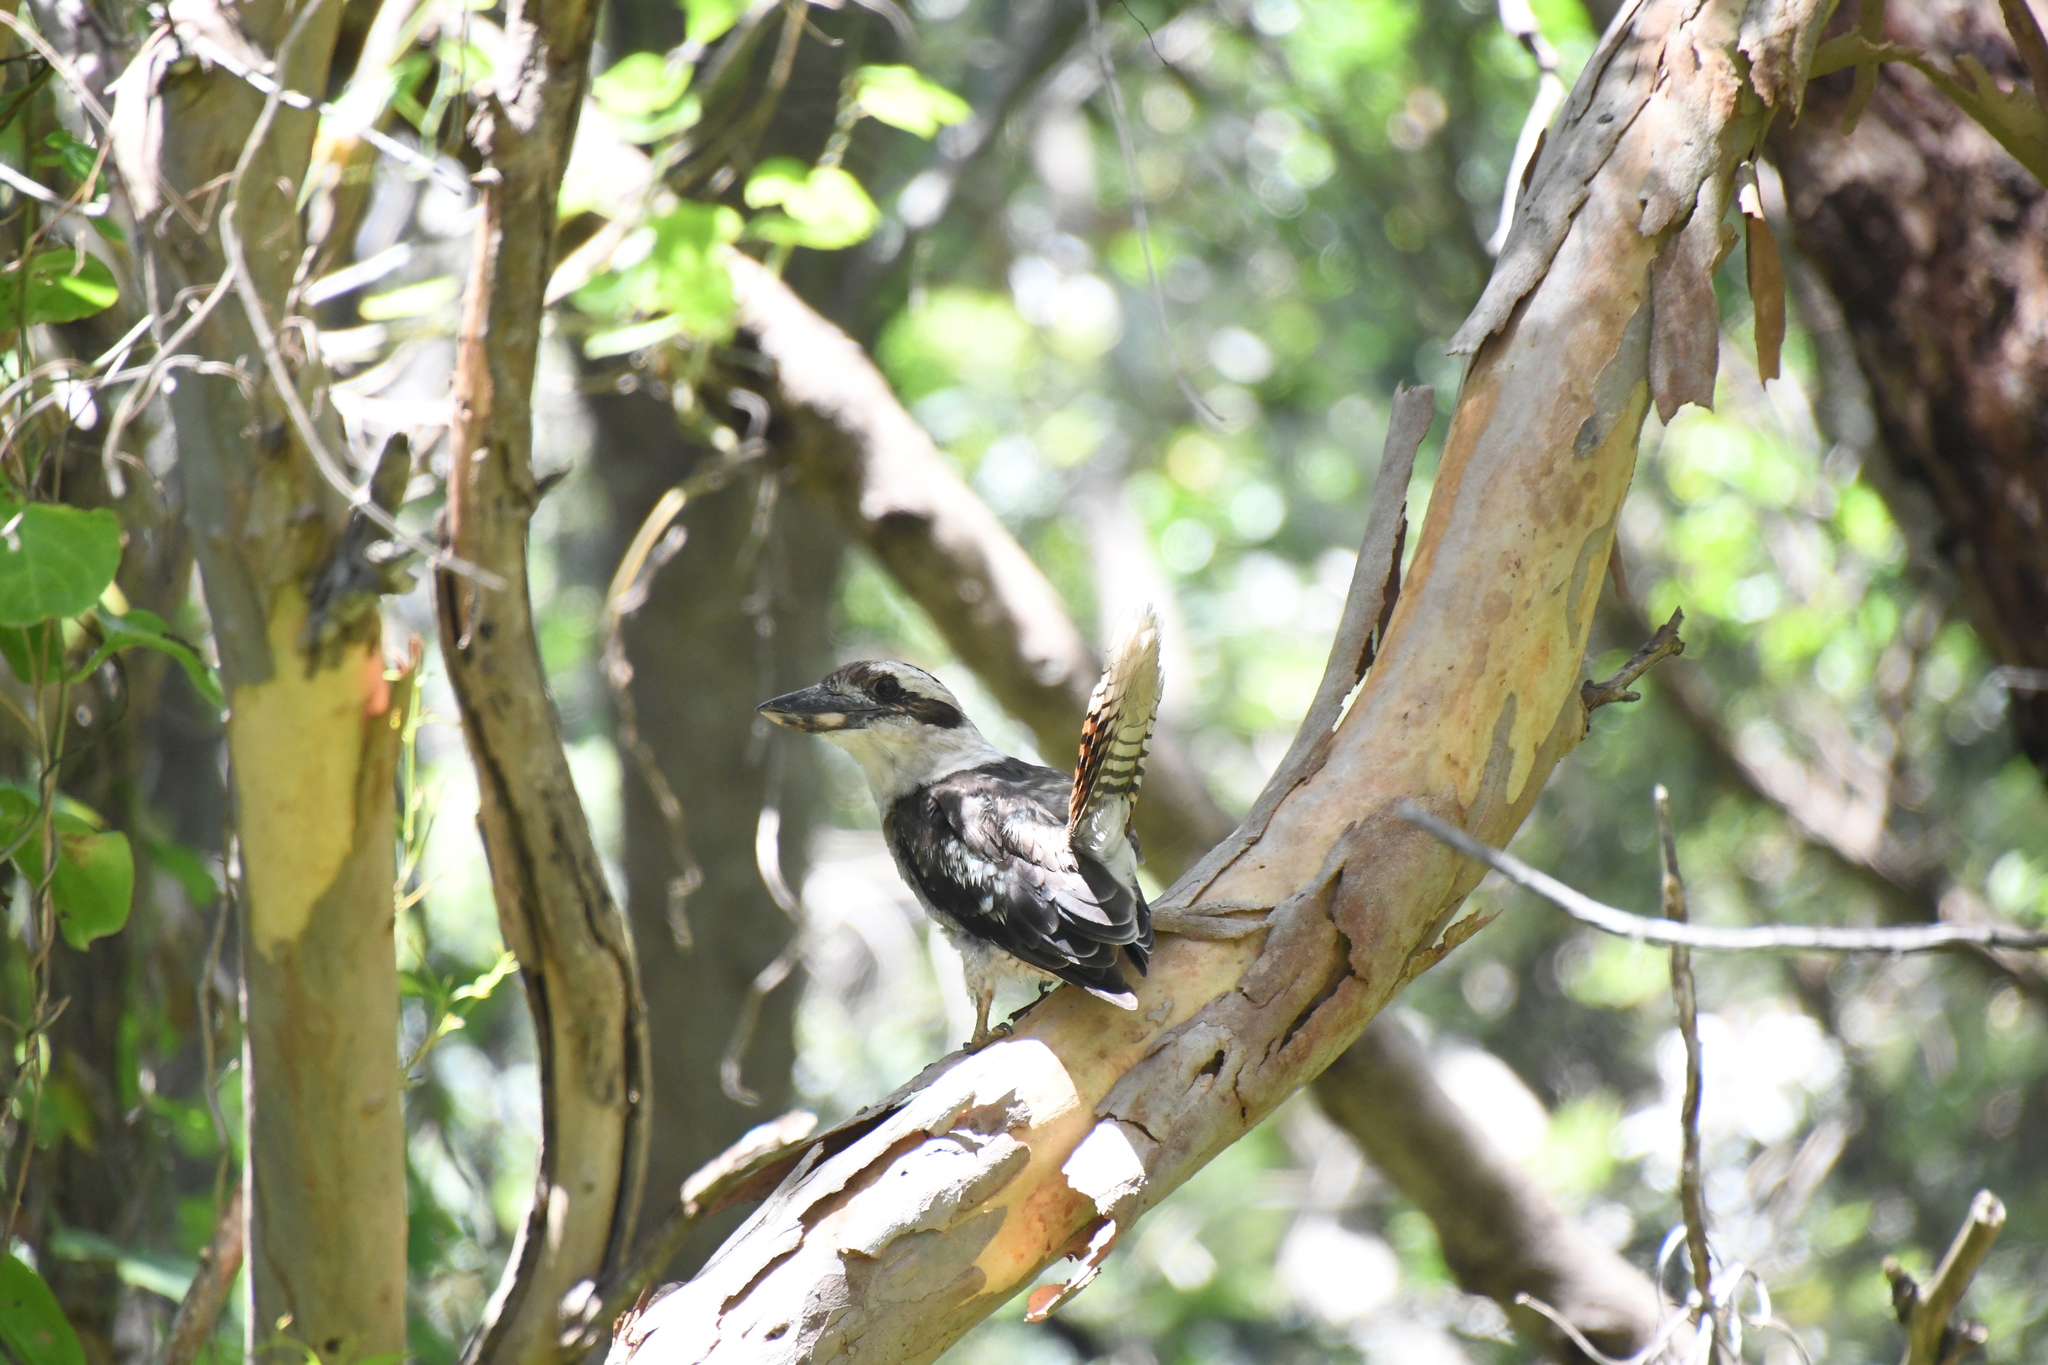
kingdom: Animalia
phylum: Chordata
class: Aves
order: Coraciiformes
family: Alcedinidae
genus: Dacelo
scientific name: Dacelo novaeguineae
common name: Laughing kookaburra
